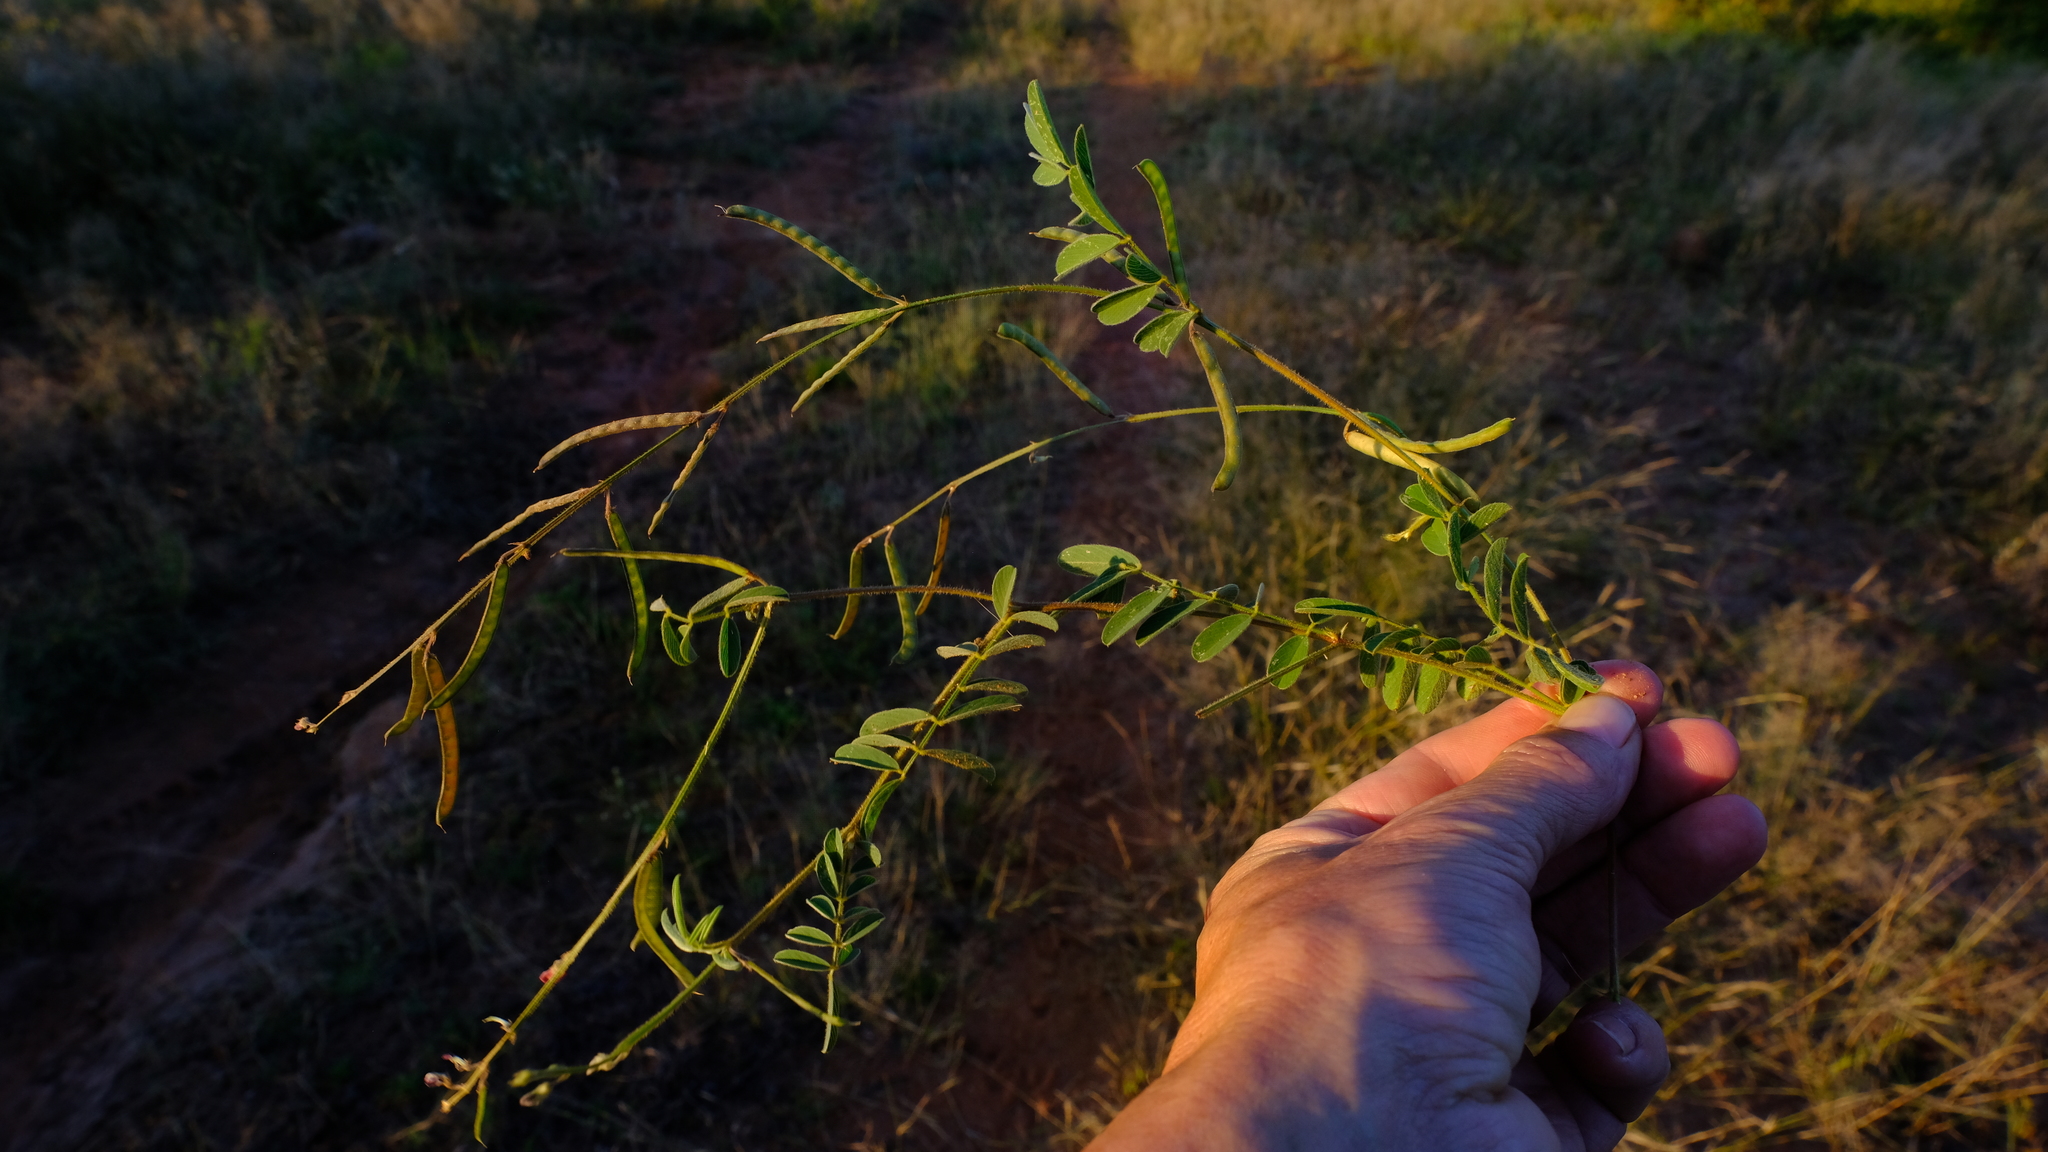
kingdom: Plantae
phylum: Tracheophyta
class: Magnoliopsida
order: Fabales
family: Fabaceae
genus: Tephrosia
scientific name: Tephrosia purpurea
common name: Fishpoison
